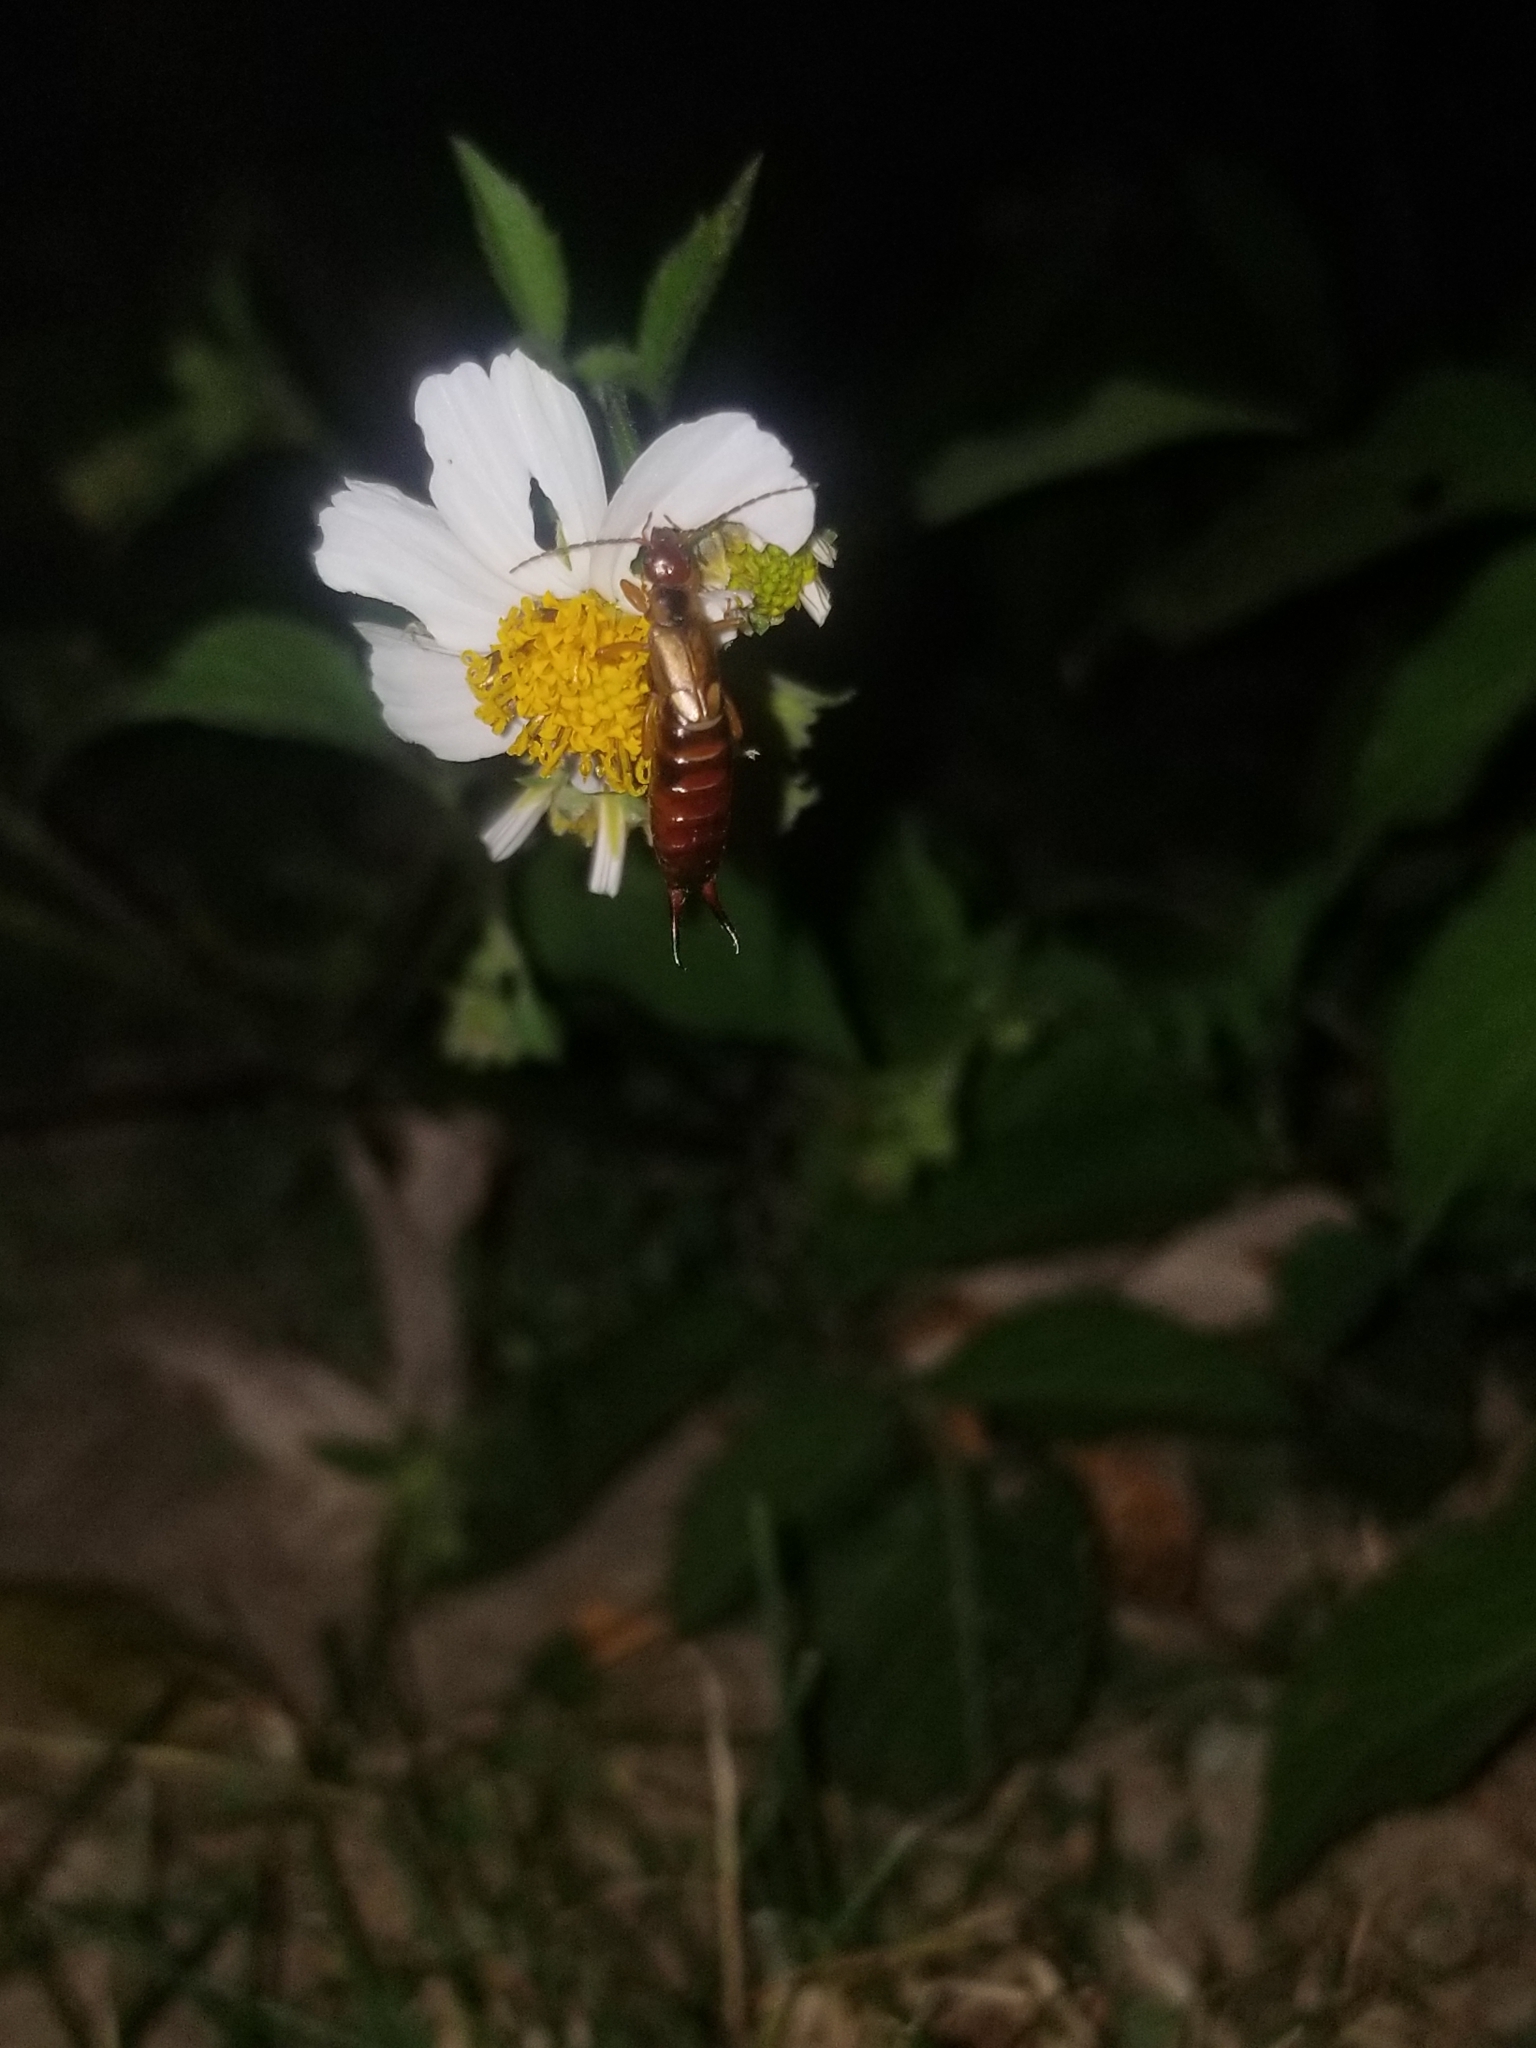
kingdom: Animalia
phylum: Arthropoda
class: Insecta
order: Dermaptera
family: Forficulidae
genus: Forficula
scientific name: Forficula
